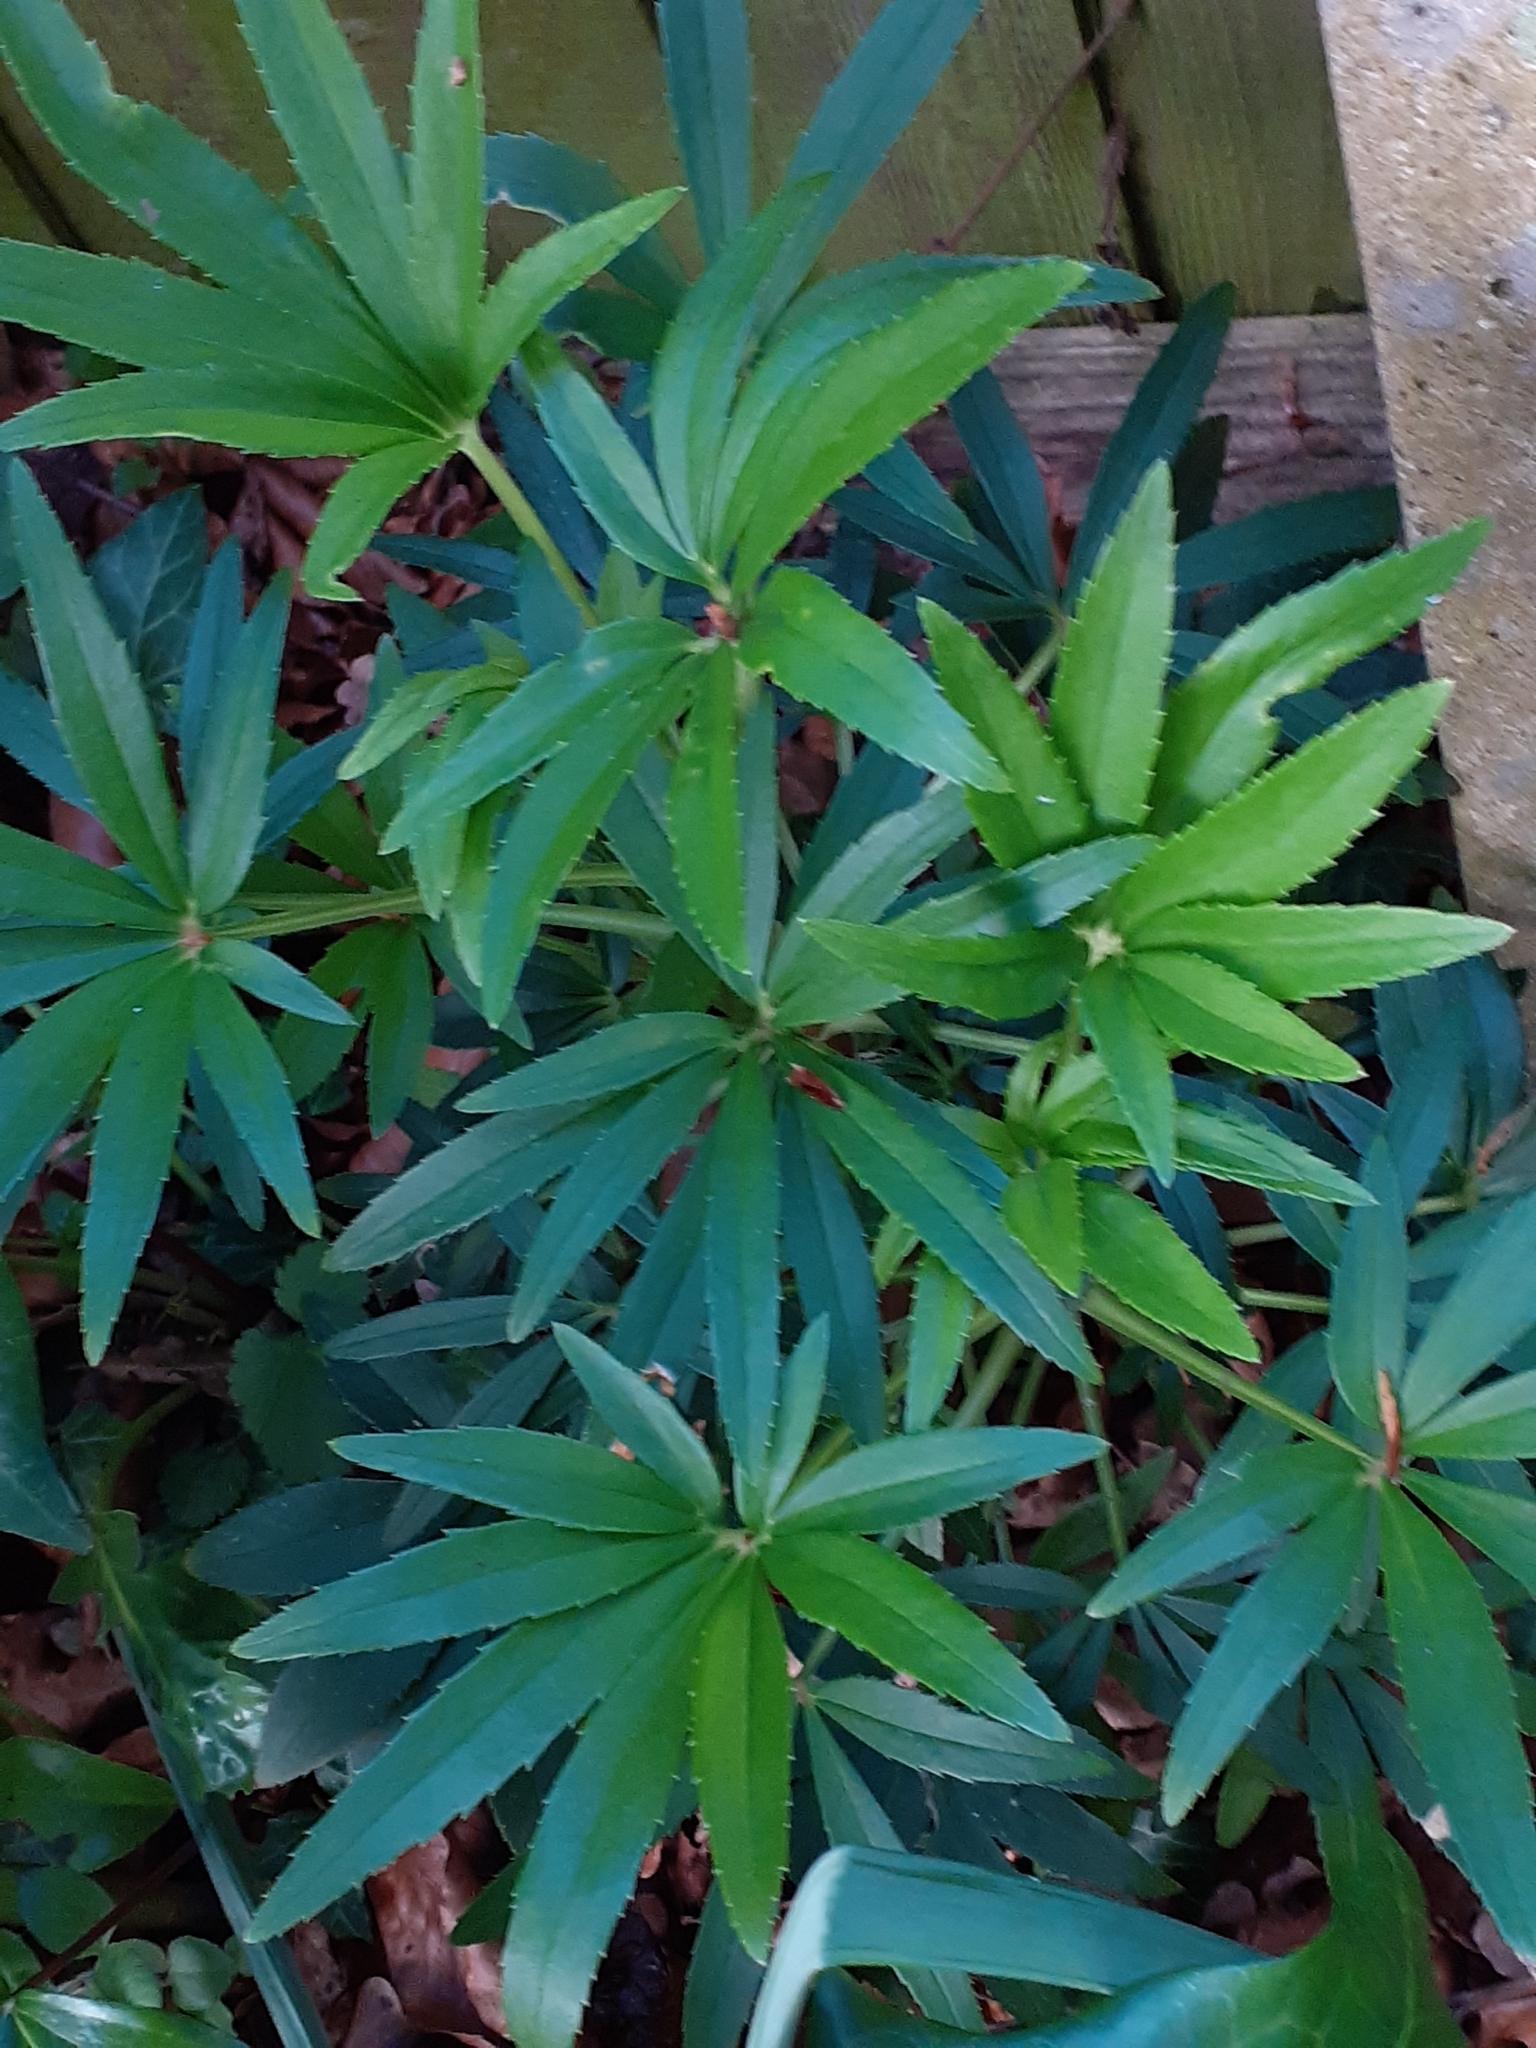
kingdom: Plantae
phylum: Tracheophyta
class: Magnoliopsida
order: Ranunculales
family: Ranunculaceae
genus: Helleborus
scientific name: Helleborus foetidus
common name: Stinking hellebore
